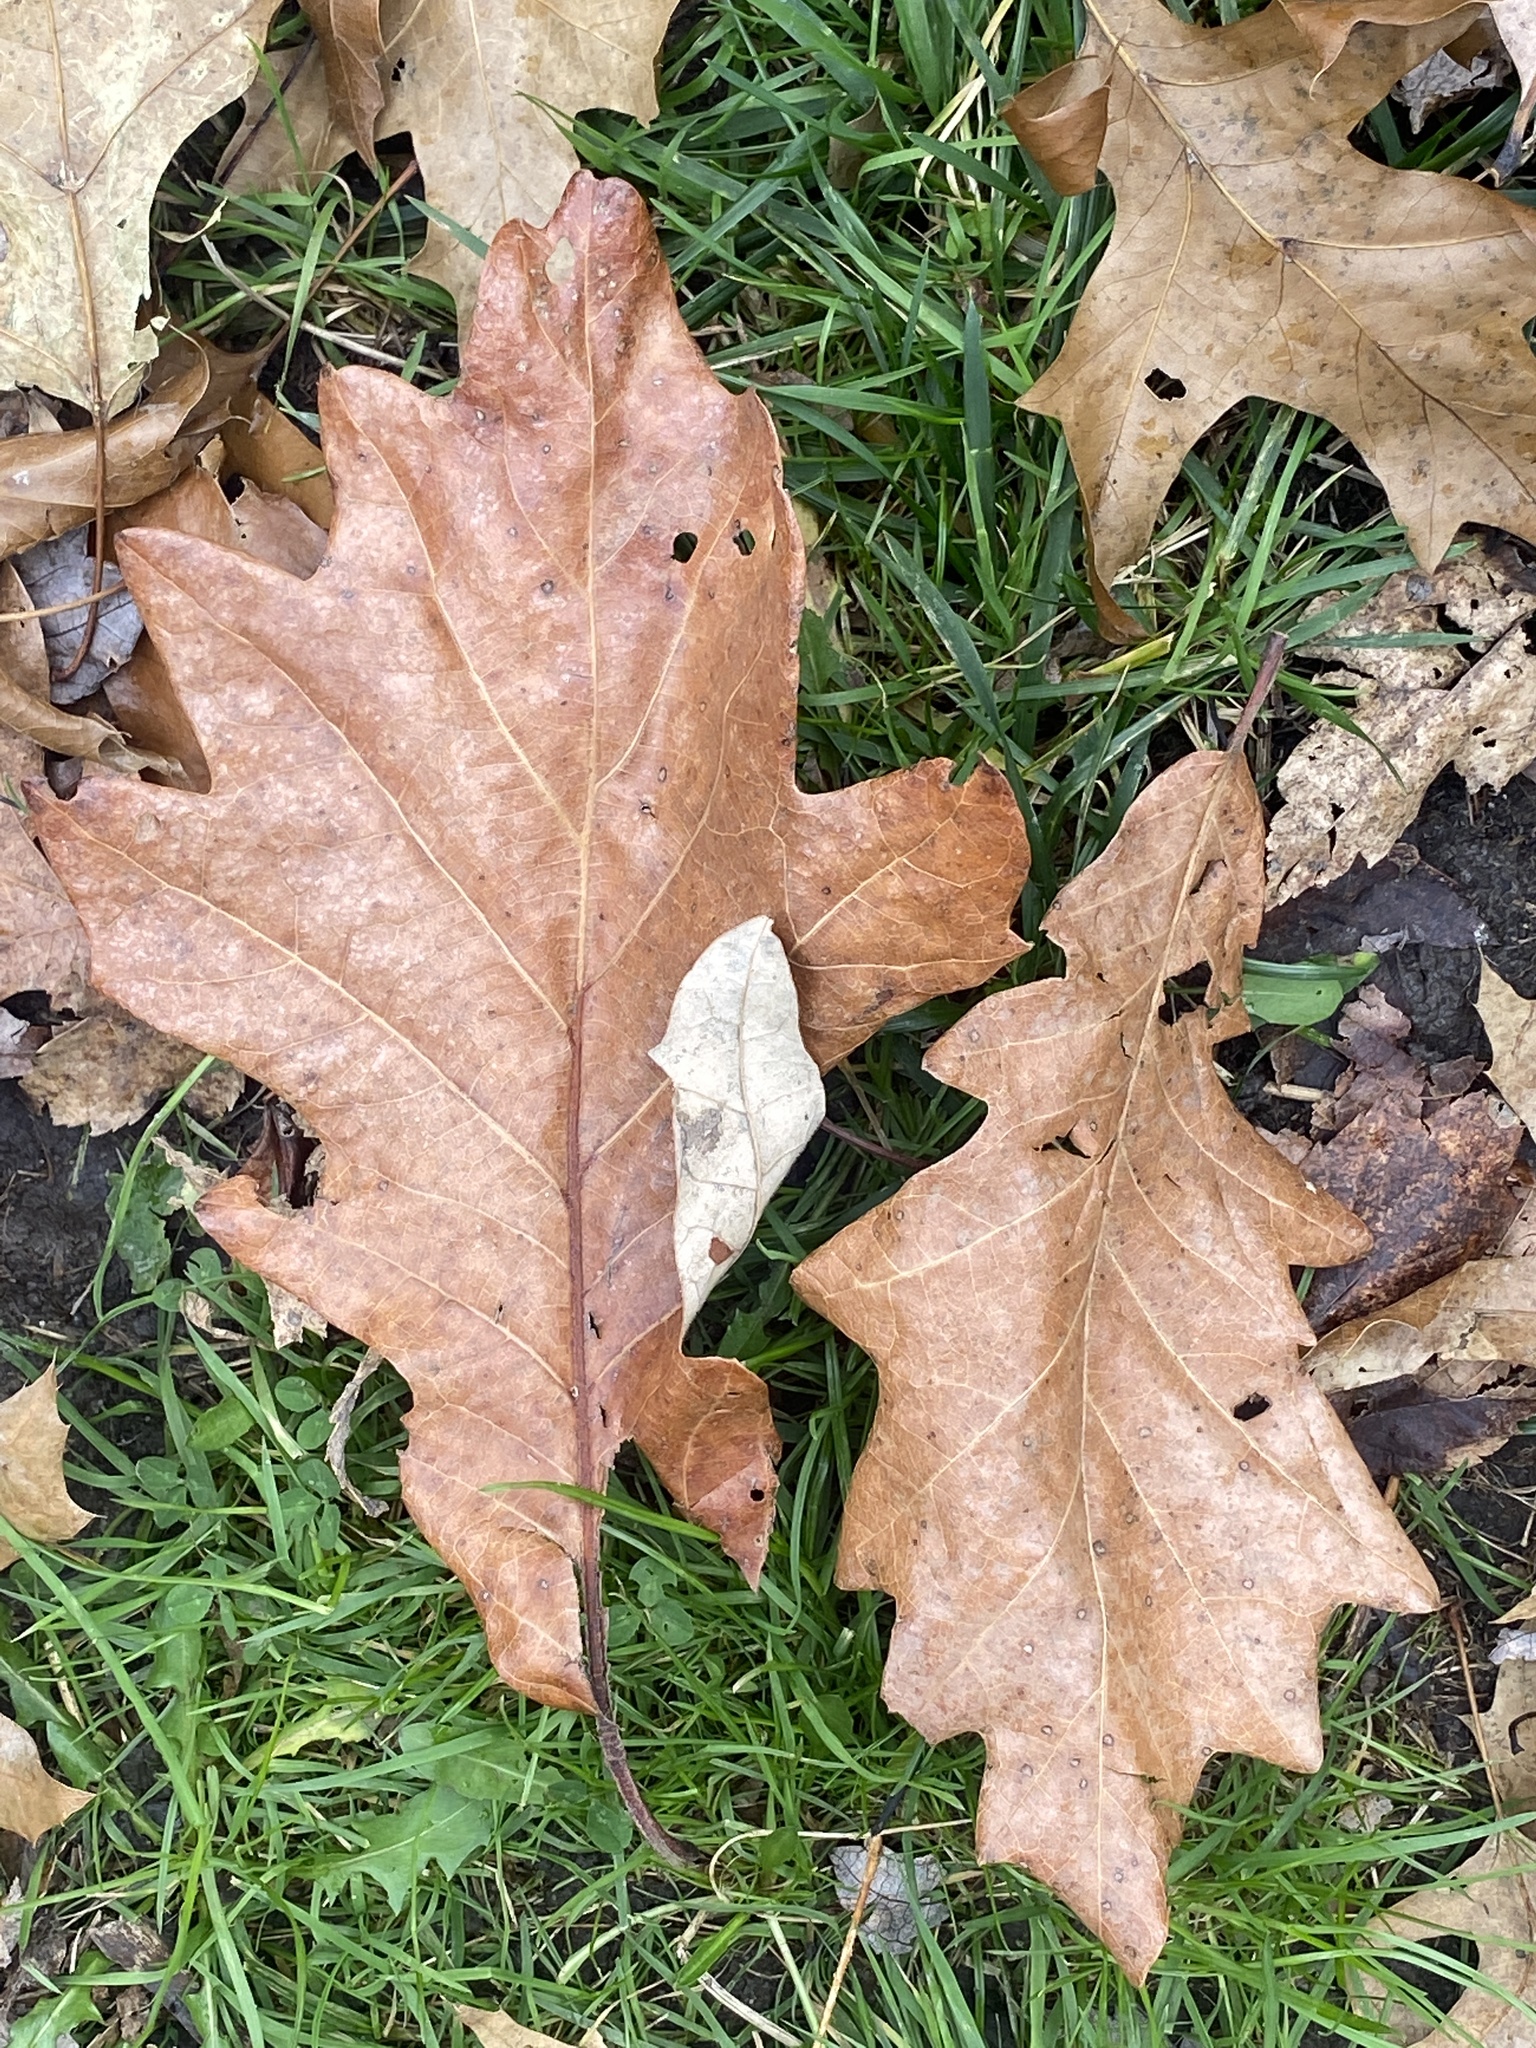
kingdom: Plantae
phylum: Tracheophyta
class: Magnoliopsida
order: Fagales
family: Fagaceae
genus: Quercus
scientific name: Quercus bicolor
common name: Swamp white oak
